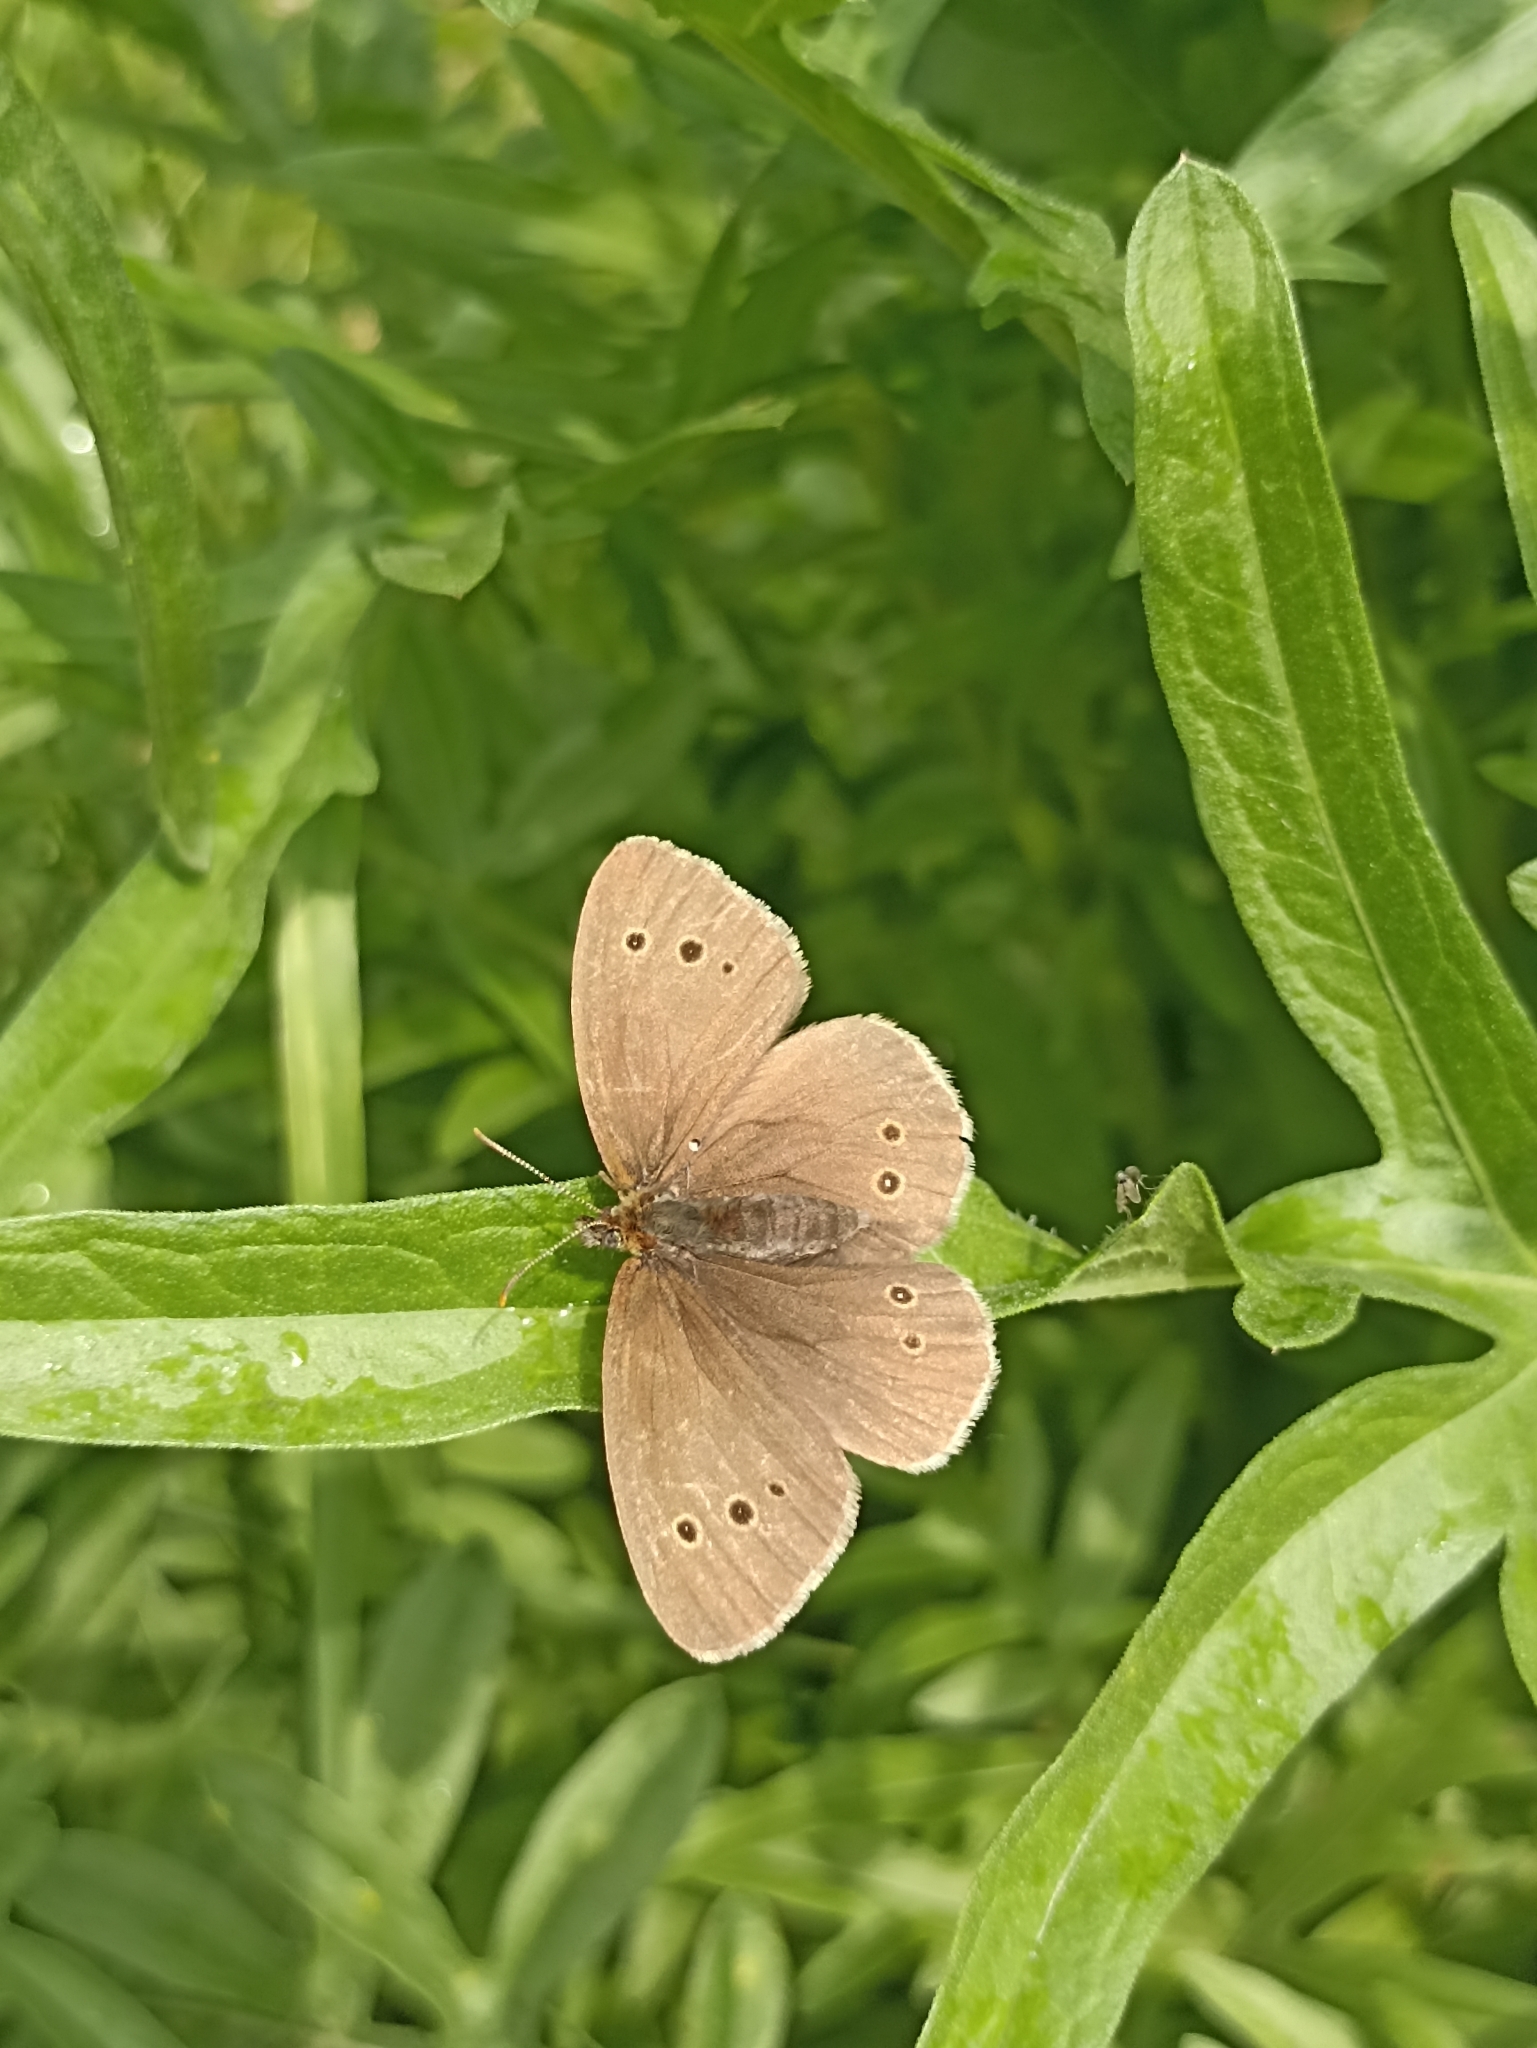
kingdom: Animalia
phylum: Arthropoda
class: Insecta
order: Lepidoptera
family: Nymphalidae
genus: Aphantopus
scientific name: Aphantopus hyperantus
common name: Ringlet
